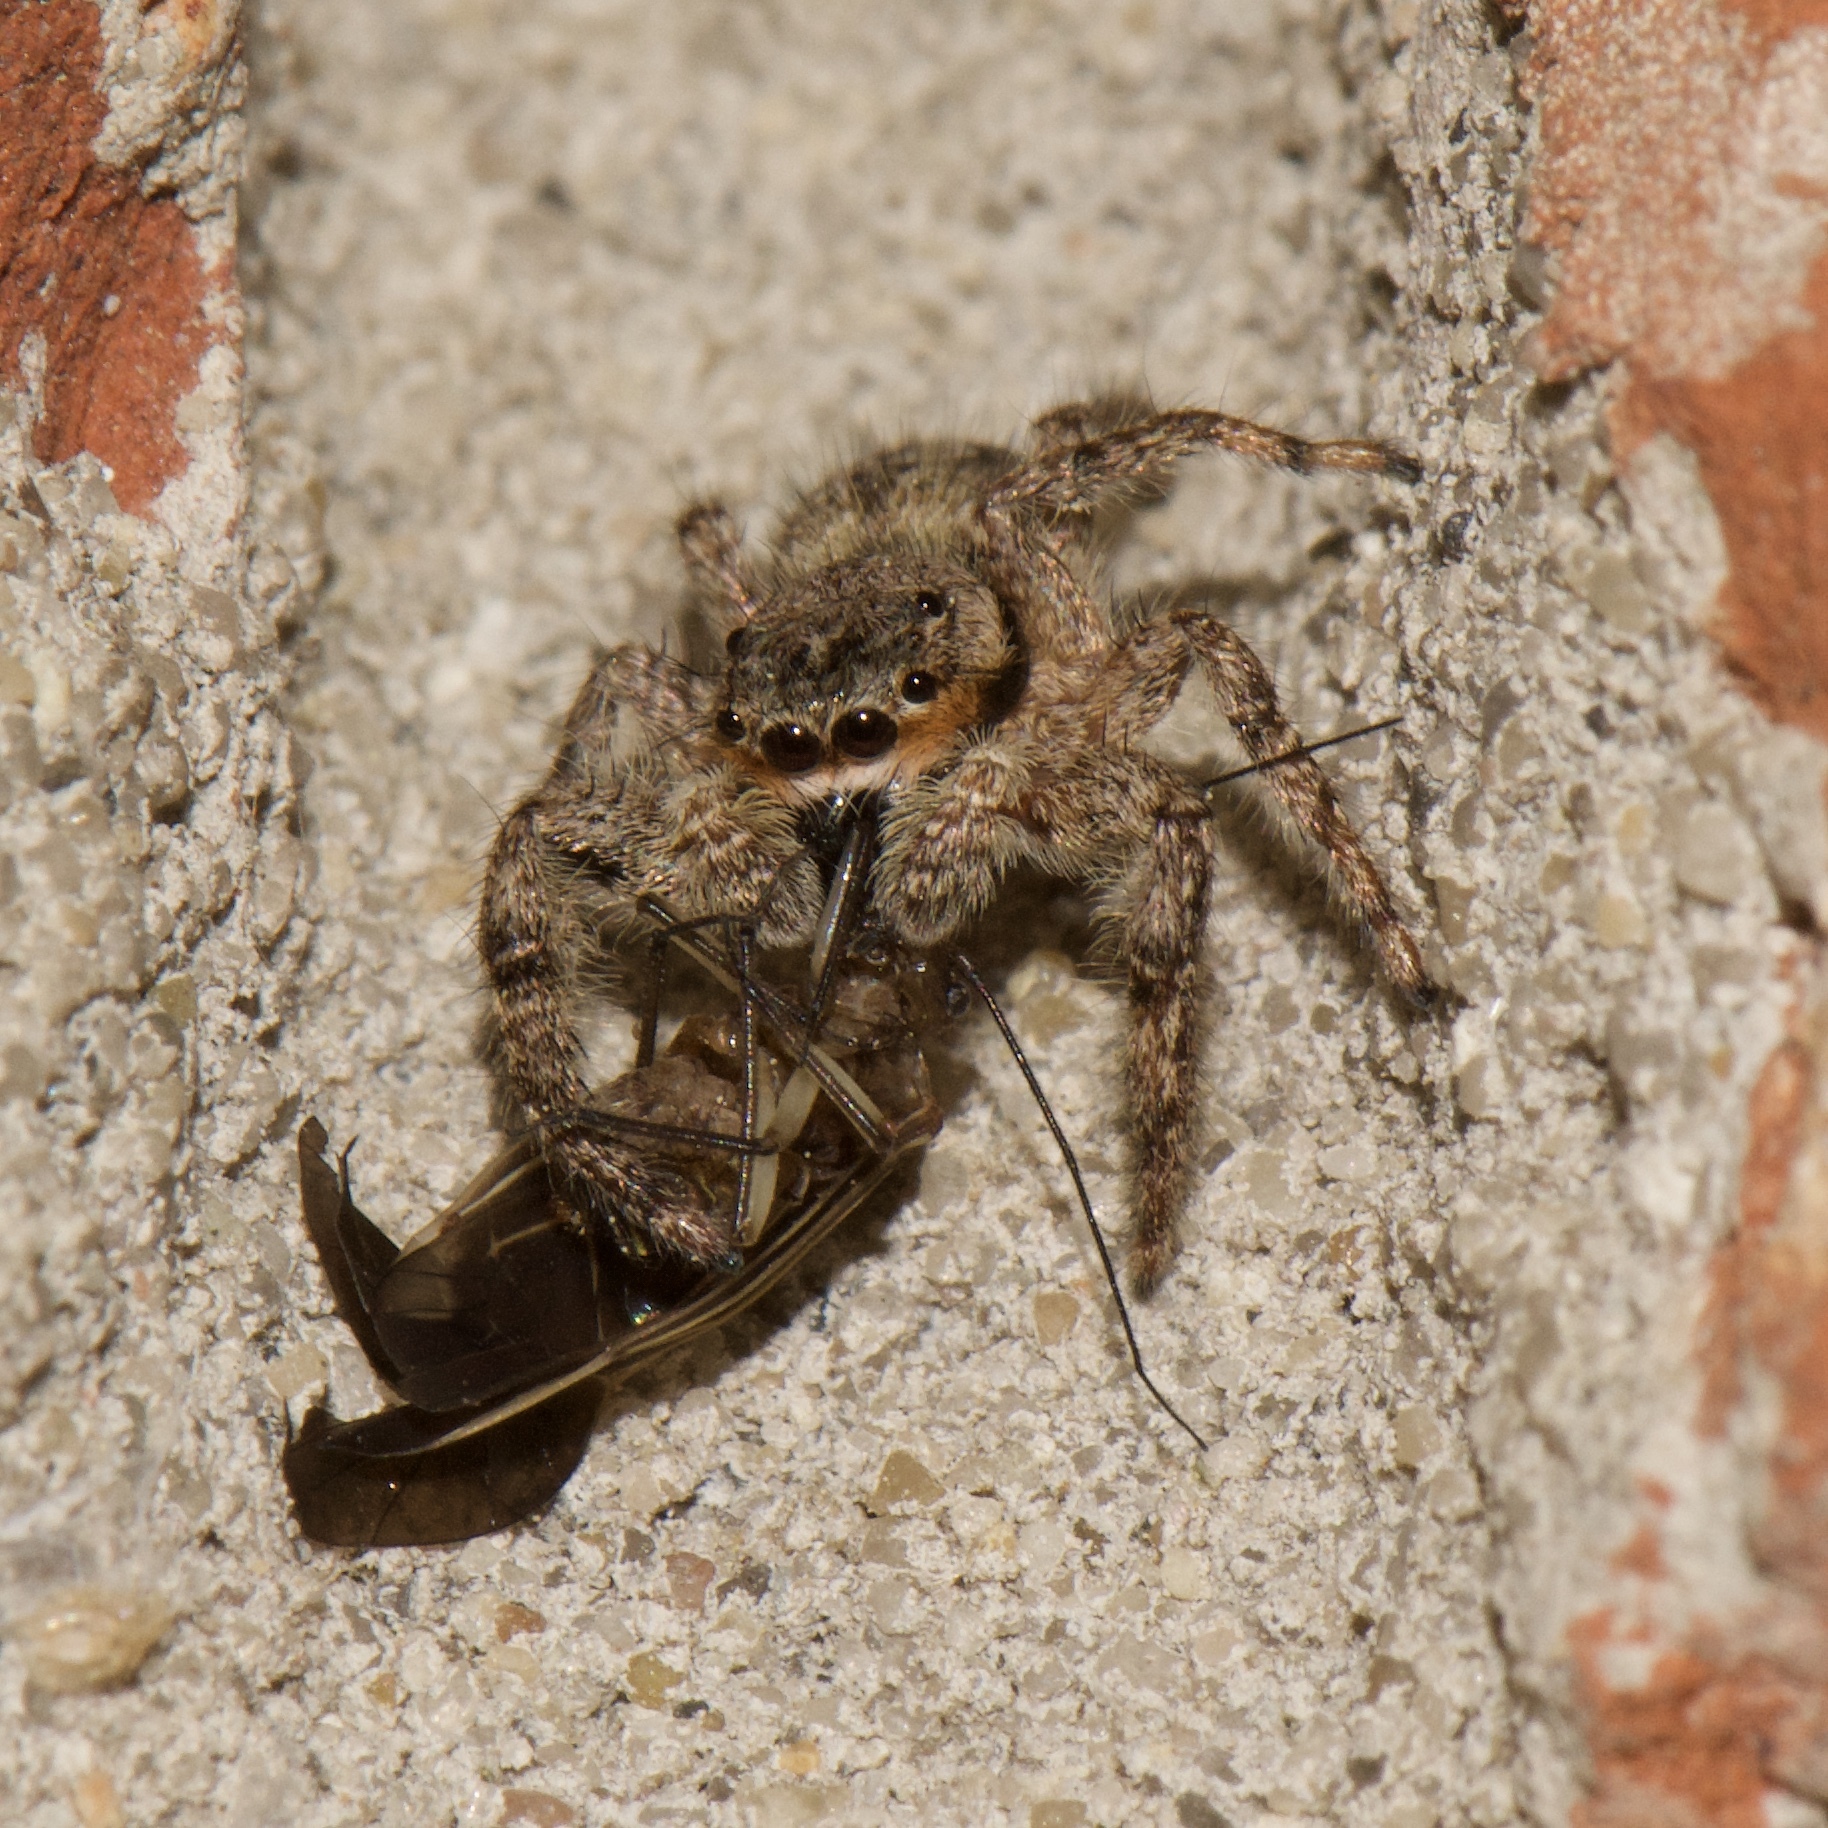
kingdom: Animalia
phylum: Arthropoda
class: Arachnida
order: Araneae
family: Salticidae
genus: Platycryptus
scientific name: Platycryptus undatus
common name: Tan jumping spider
